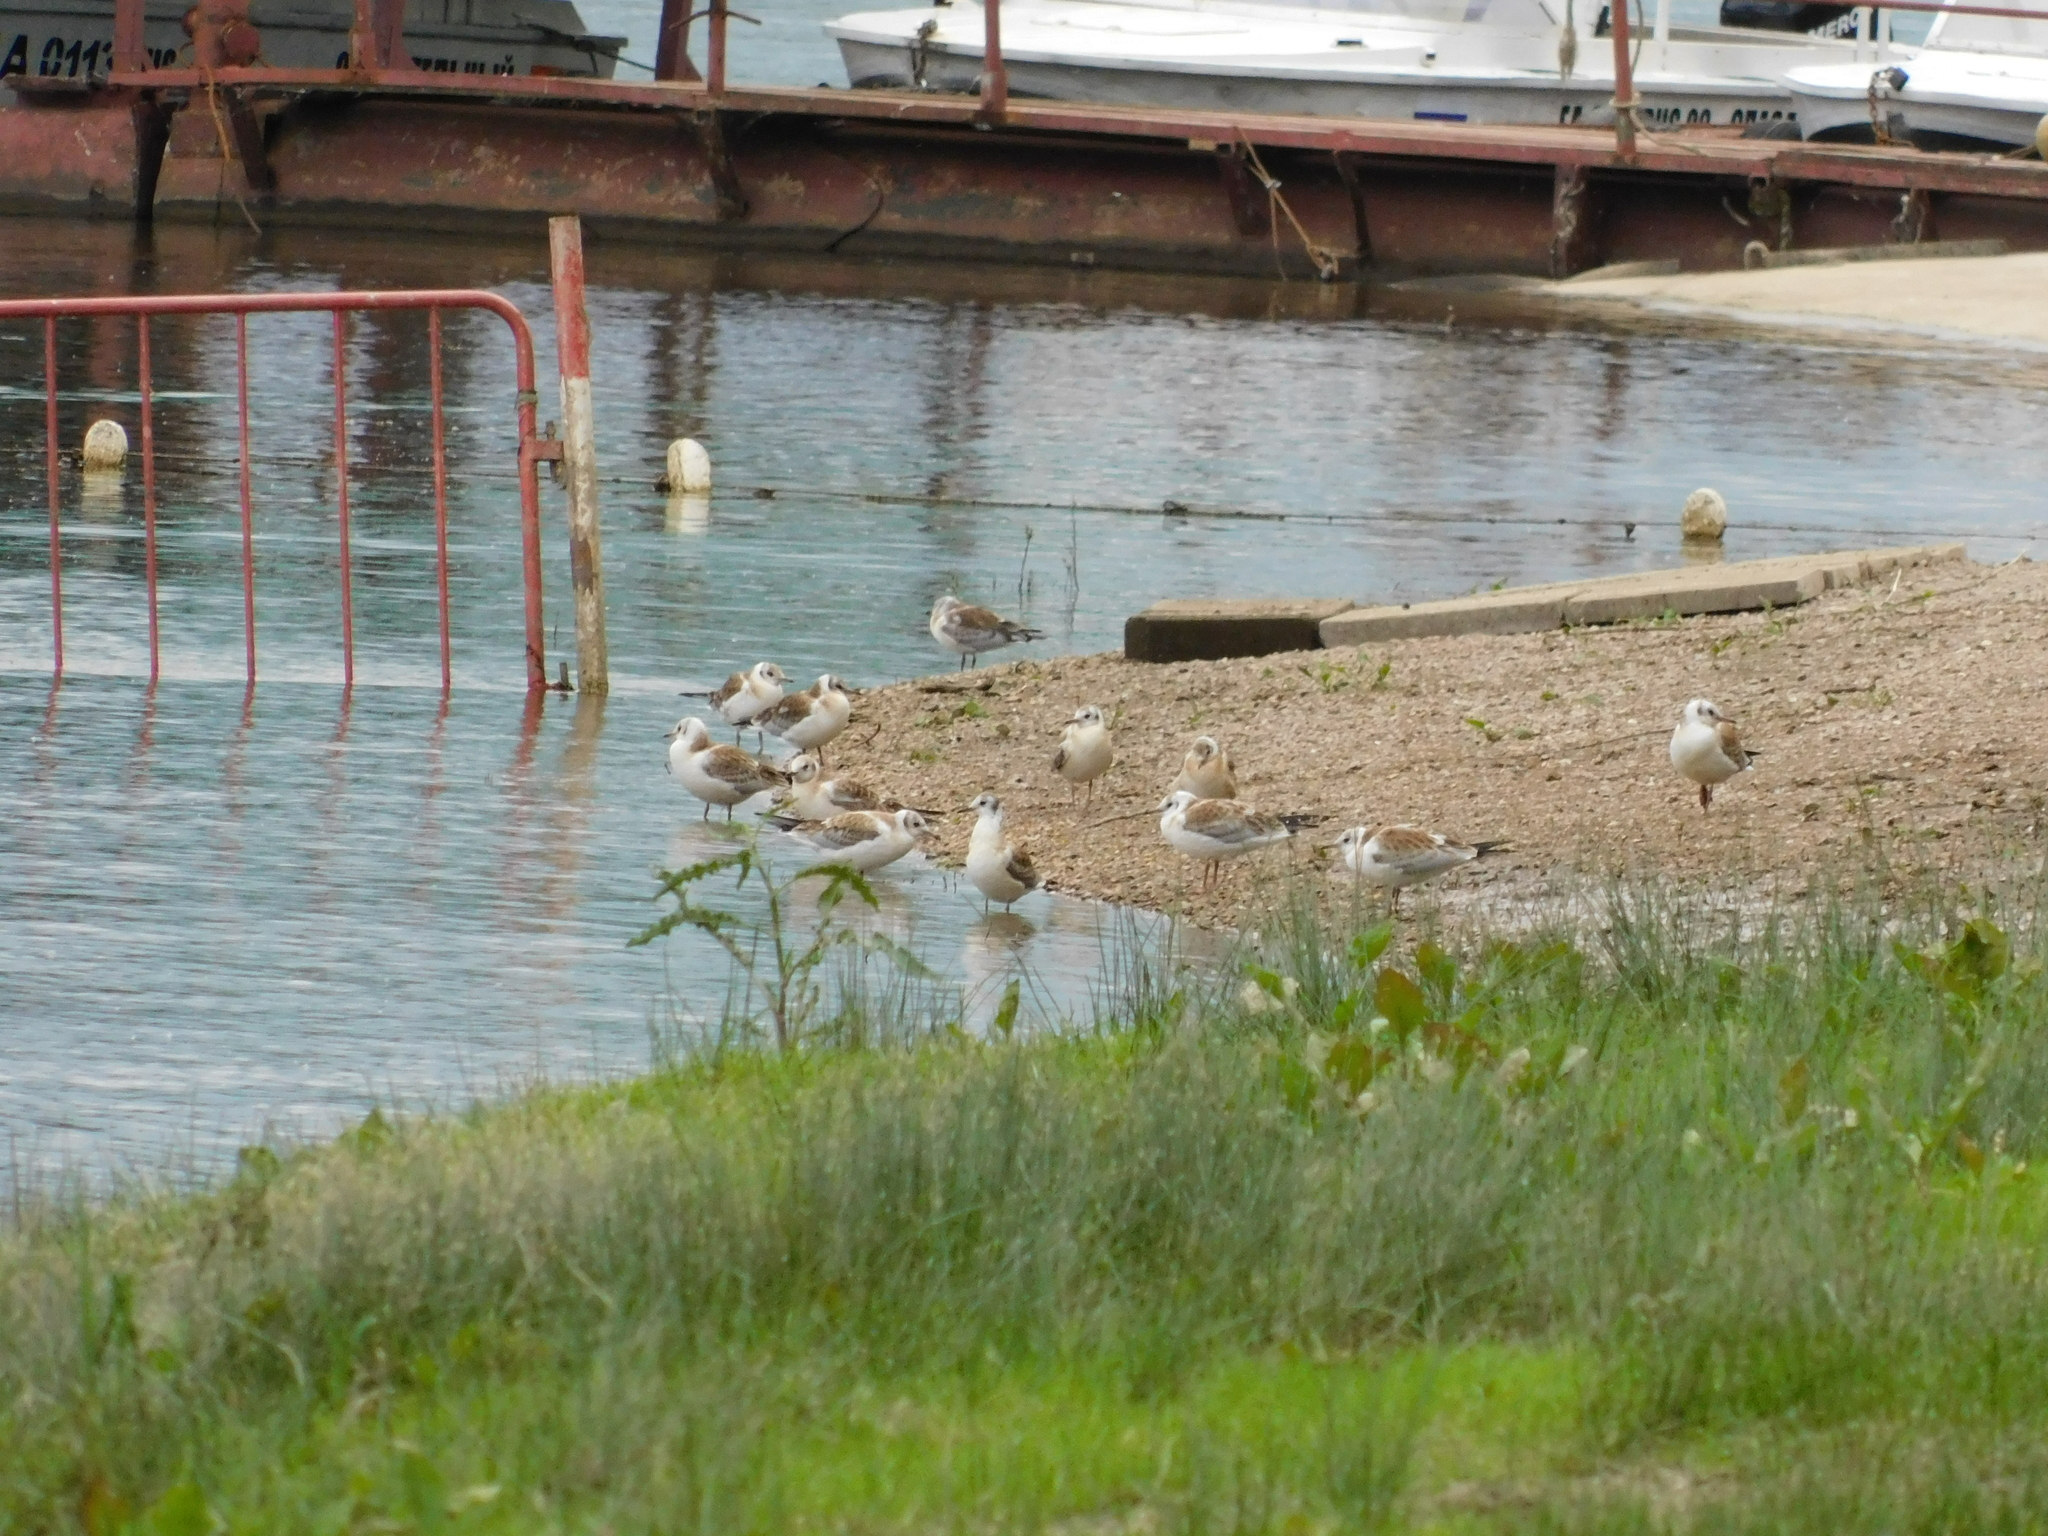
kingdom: Animalia
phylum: Chordata
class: Aves
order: Charadriiformes
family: Laridae
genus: Chroicocephalus
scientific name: Chroicocephalus ridibundus
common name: Black-headed gull
